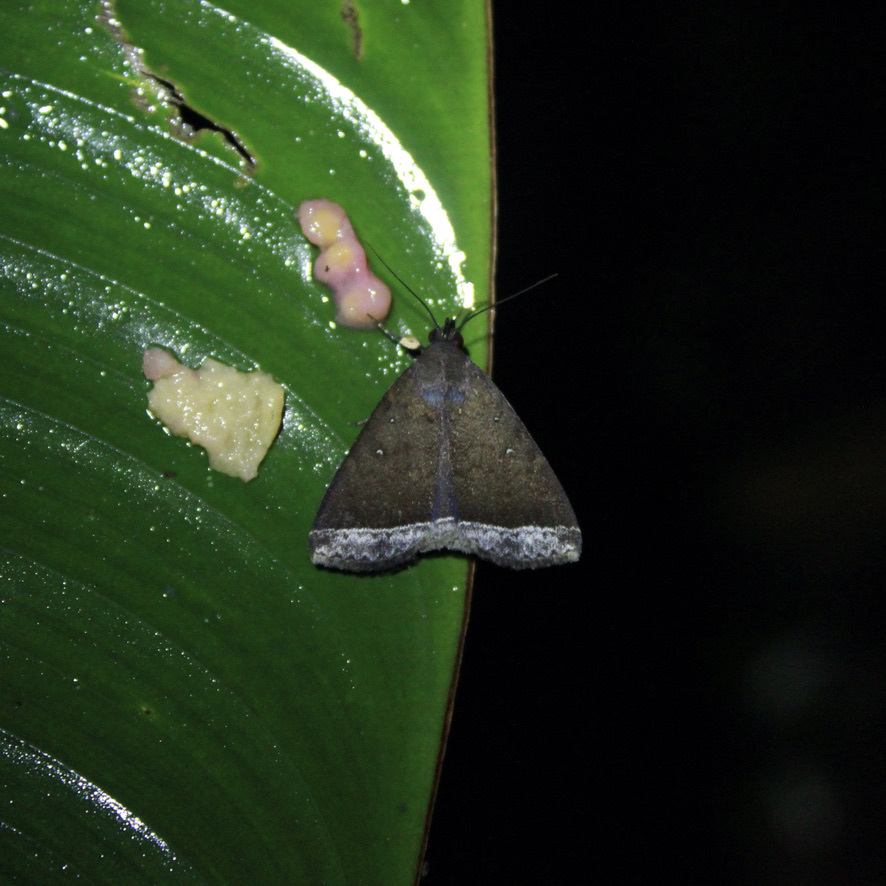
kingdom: Animalia
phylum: Arthropoda
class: Insecta
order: Lepidoptera
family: Erebidae
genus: Mamerthes
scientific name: Mamerthes orionalis
